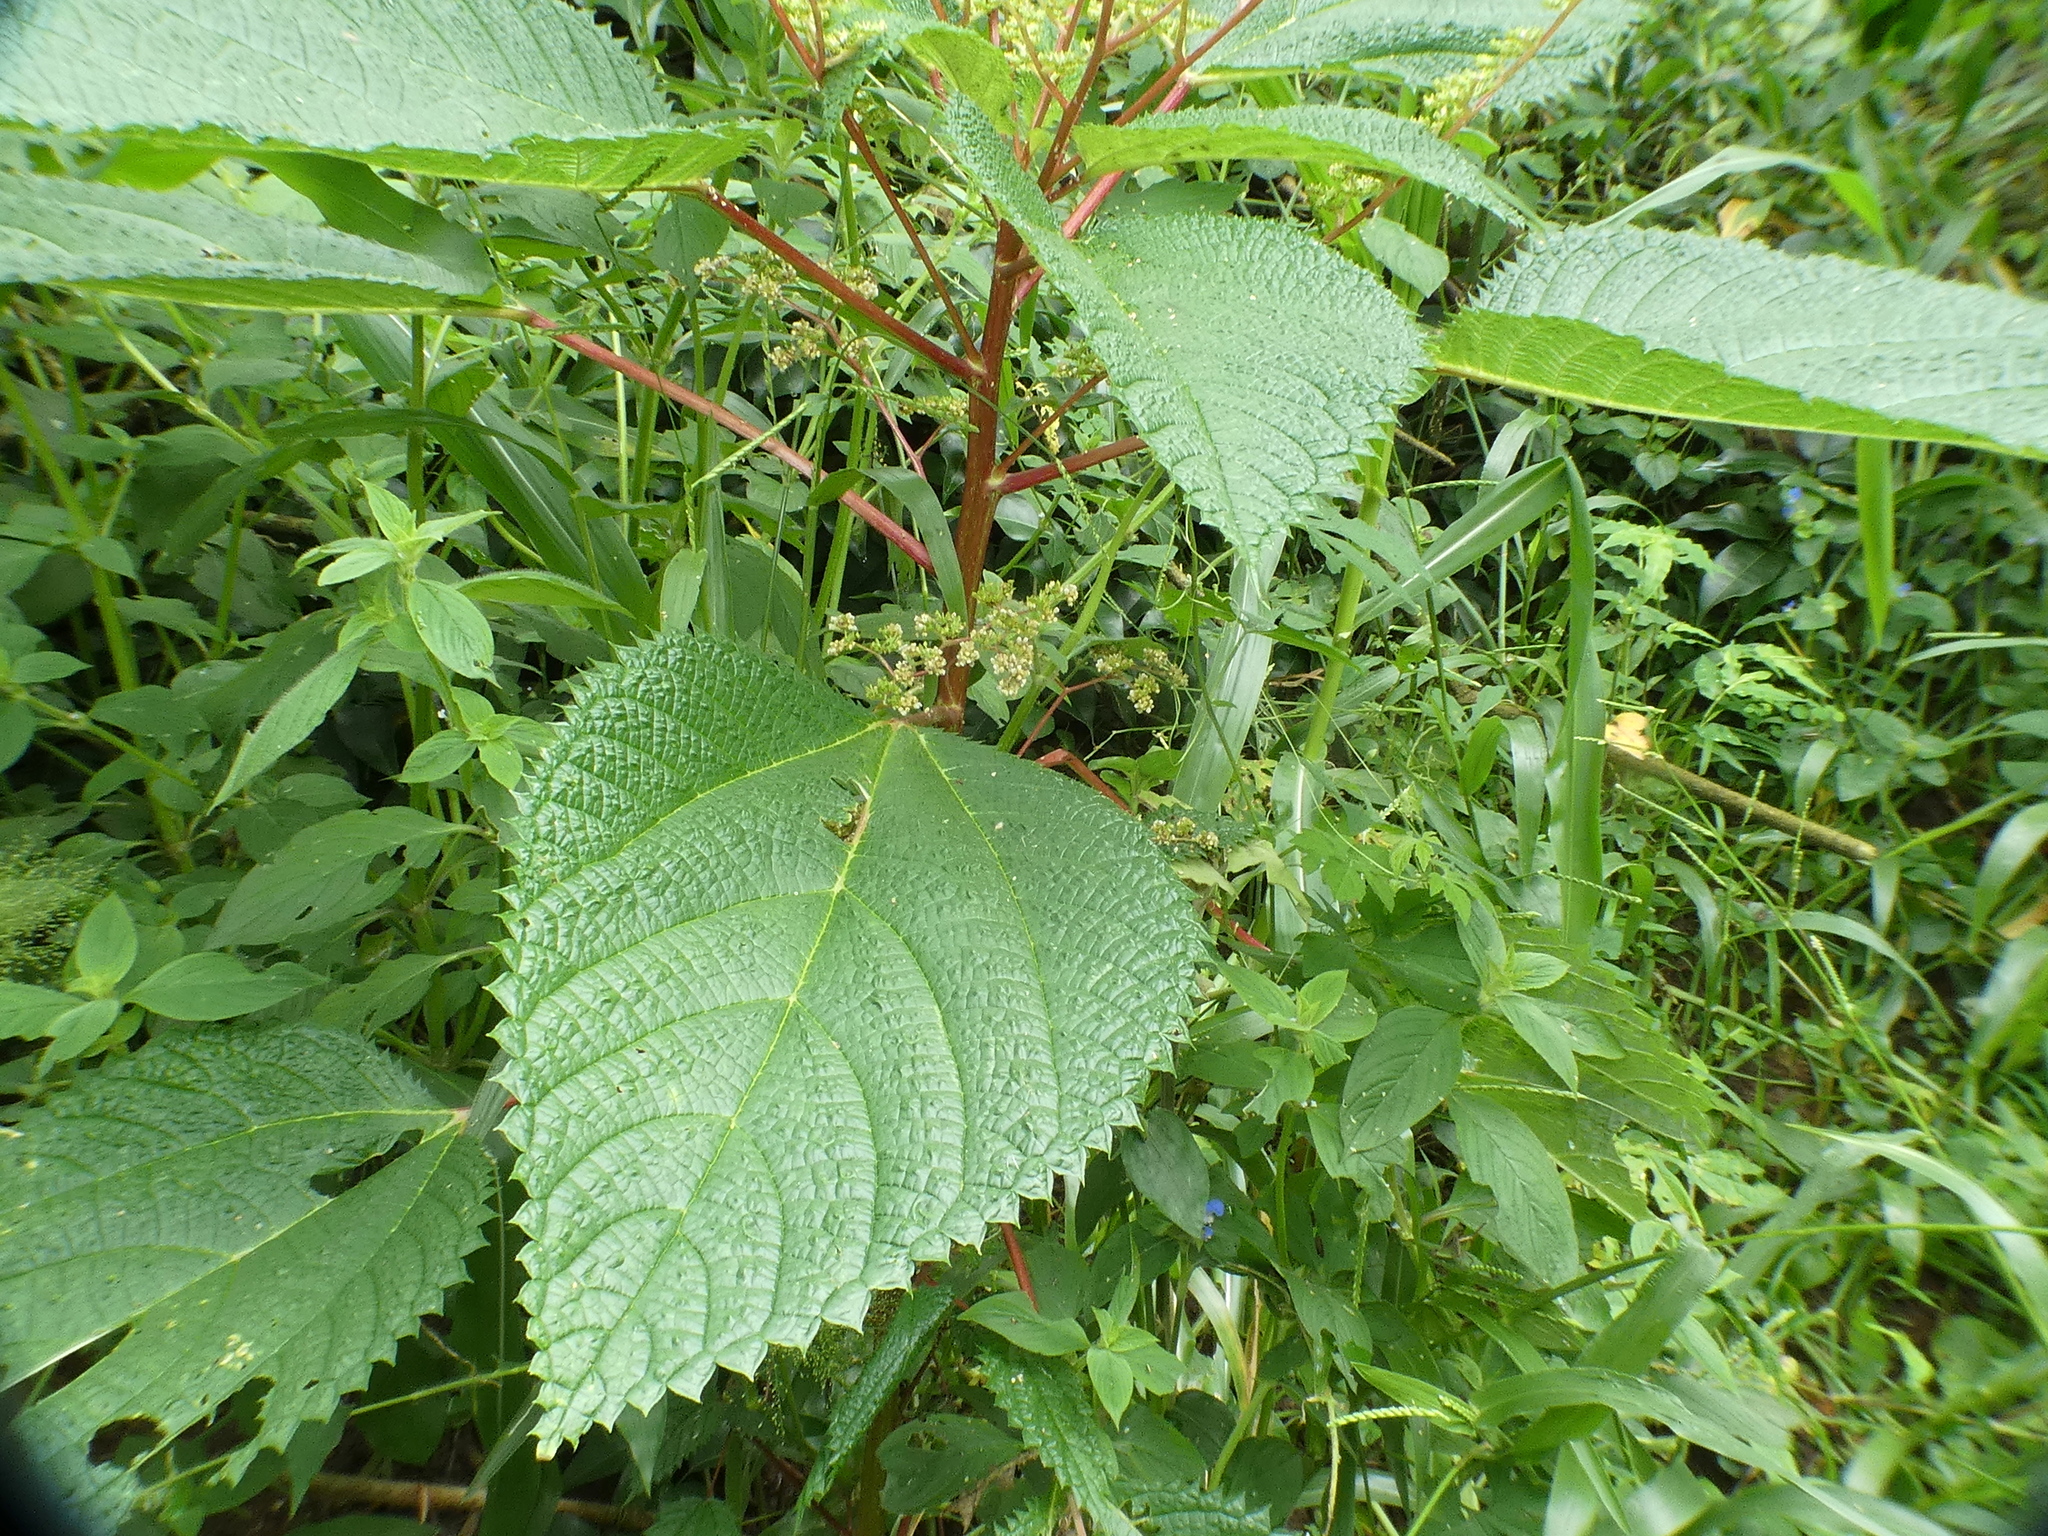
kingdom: Plantae
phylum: Tracheophyta
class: Magnoliopsida
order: Rosales
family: Urticaceae
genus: Laportea
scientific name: Laportea aestuans
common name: West indian woodnettle
